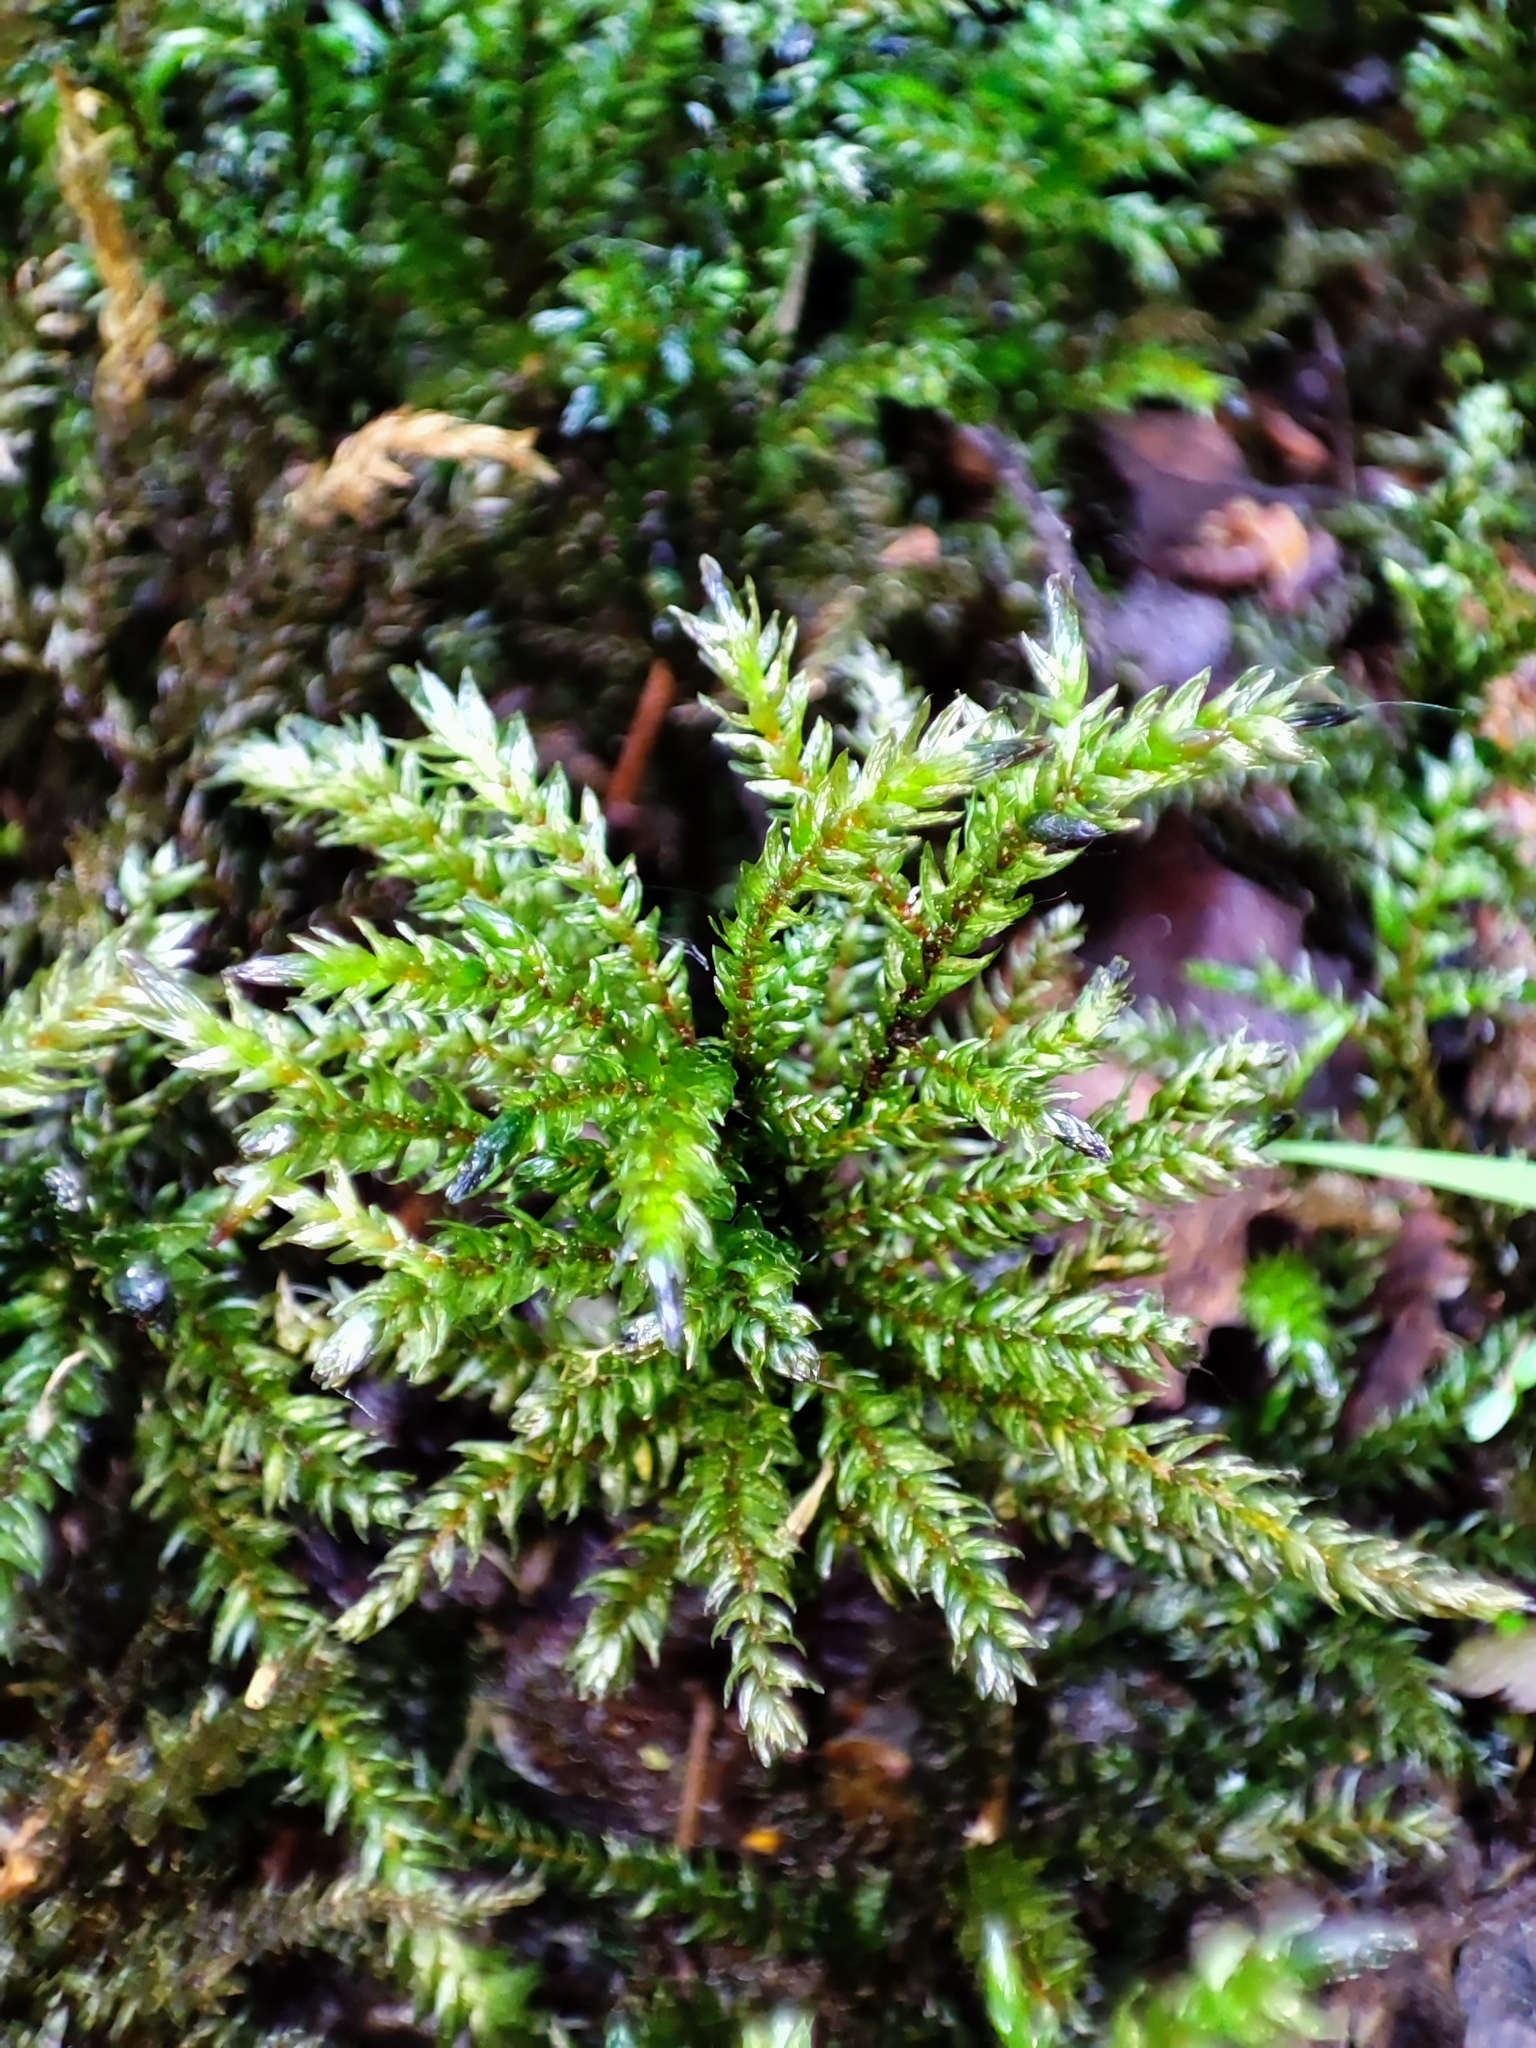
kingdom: Plantae
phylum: Bryophyta
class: Bryopsida
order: Hypnales
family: Climaciaceae
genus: Climacium
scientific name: Climacium dendroides
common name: Northern tree moss
